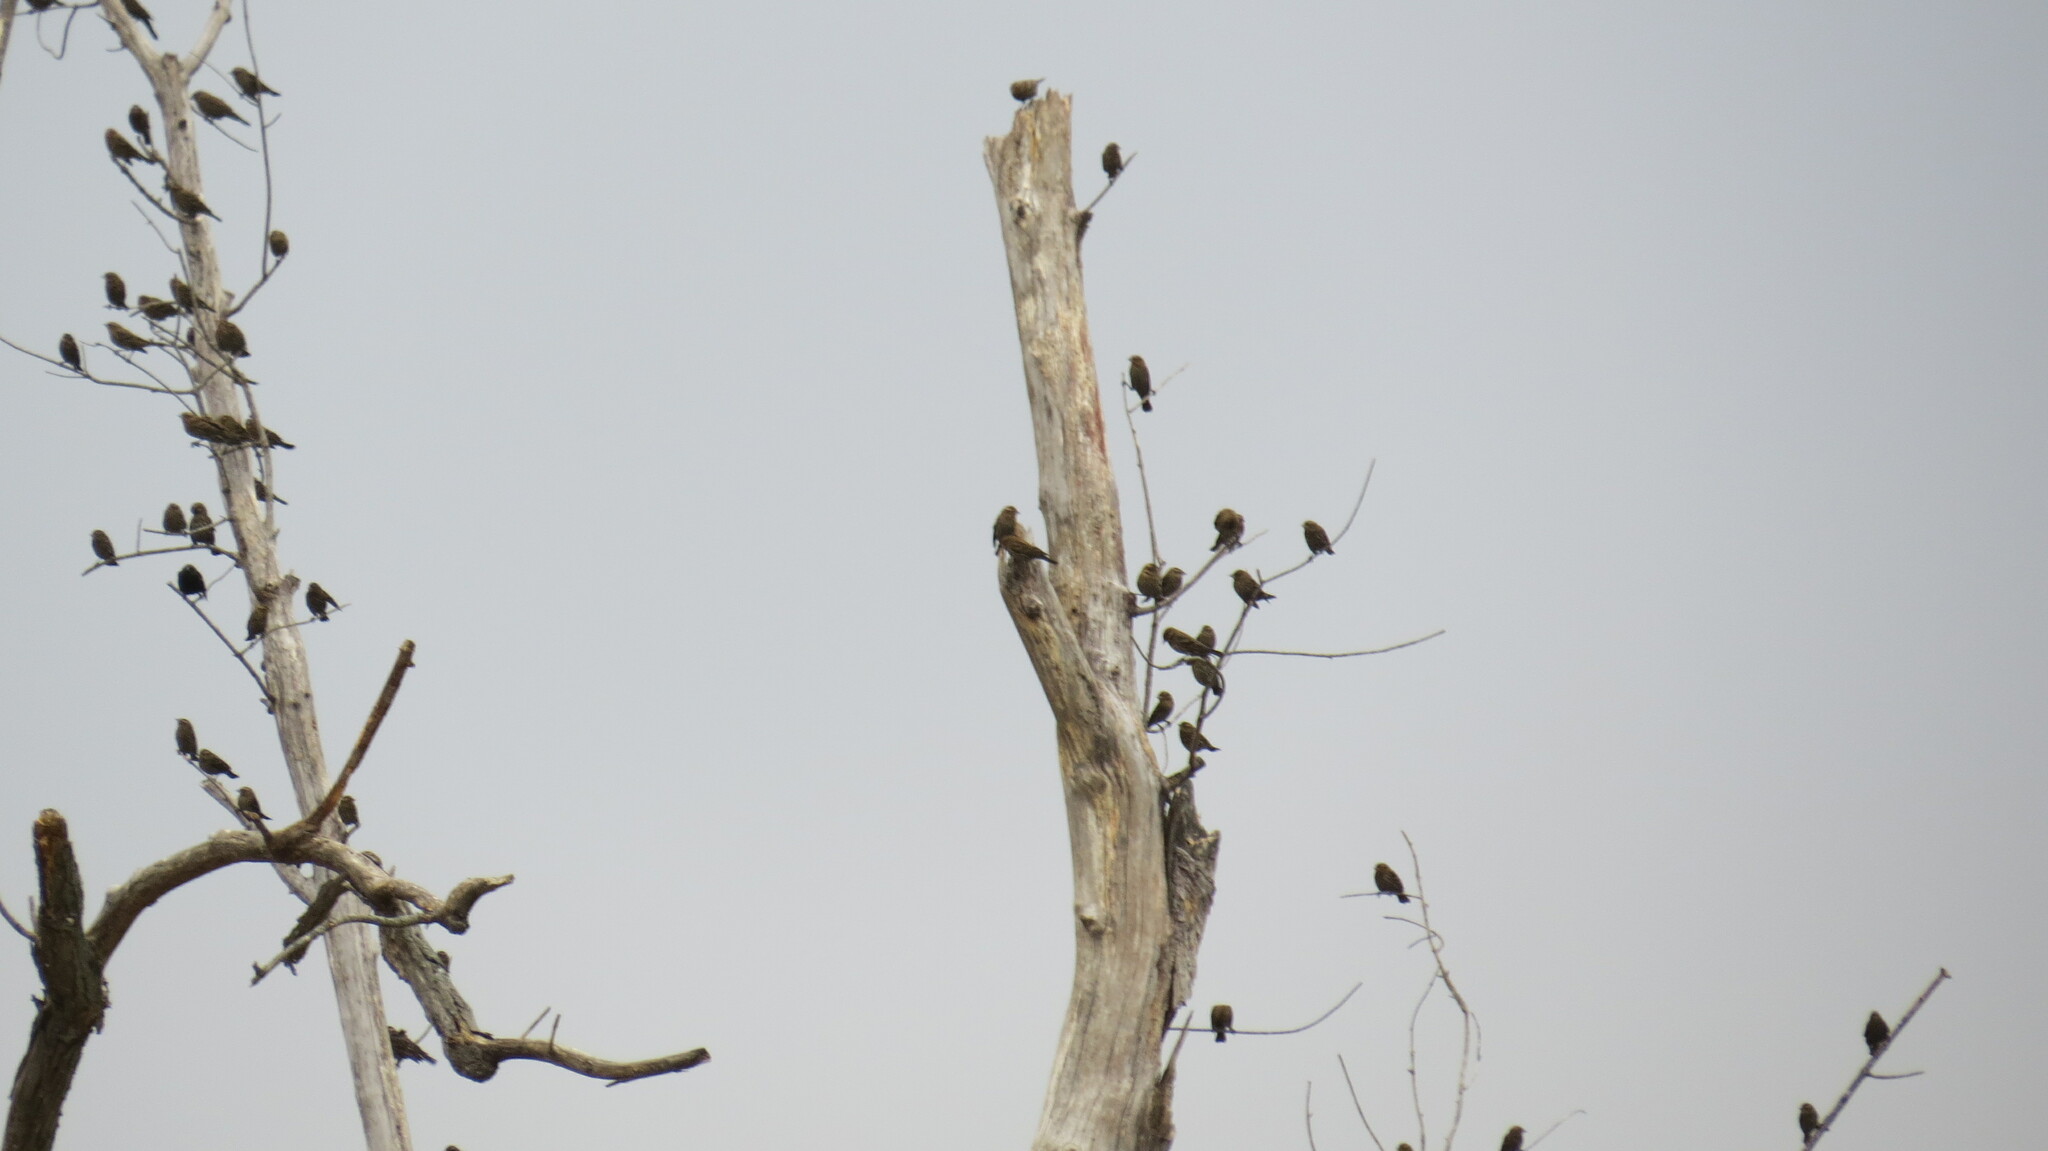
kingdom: Animalia
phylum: Chordata
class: Aves
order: Passeriformes
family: Icteridae
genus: Agelaius
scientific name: Agelaius phoeniceus
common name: Red-winged blackbird
